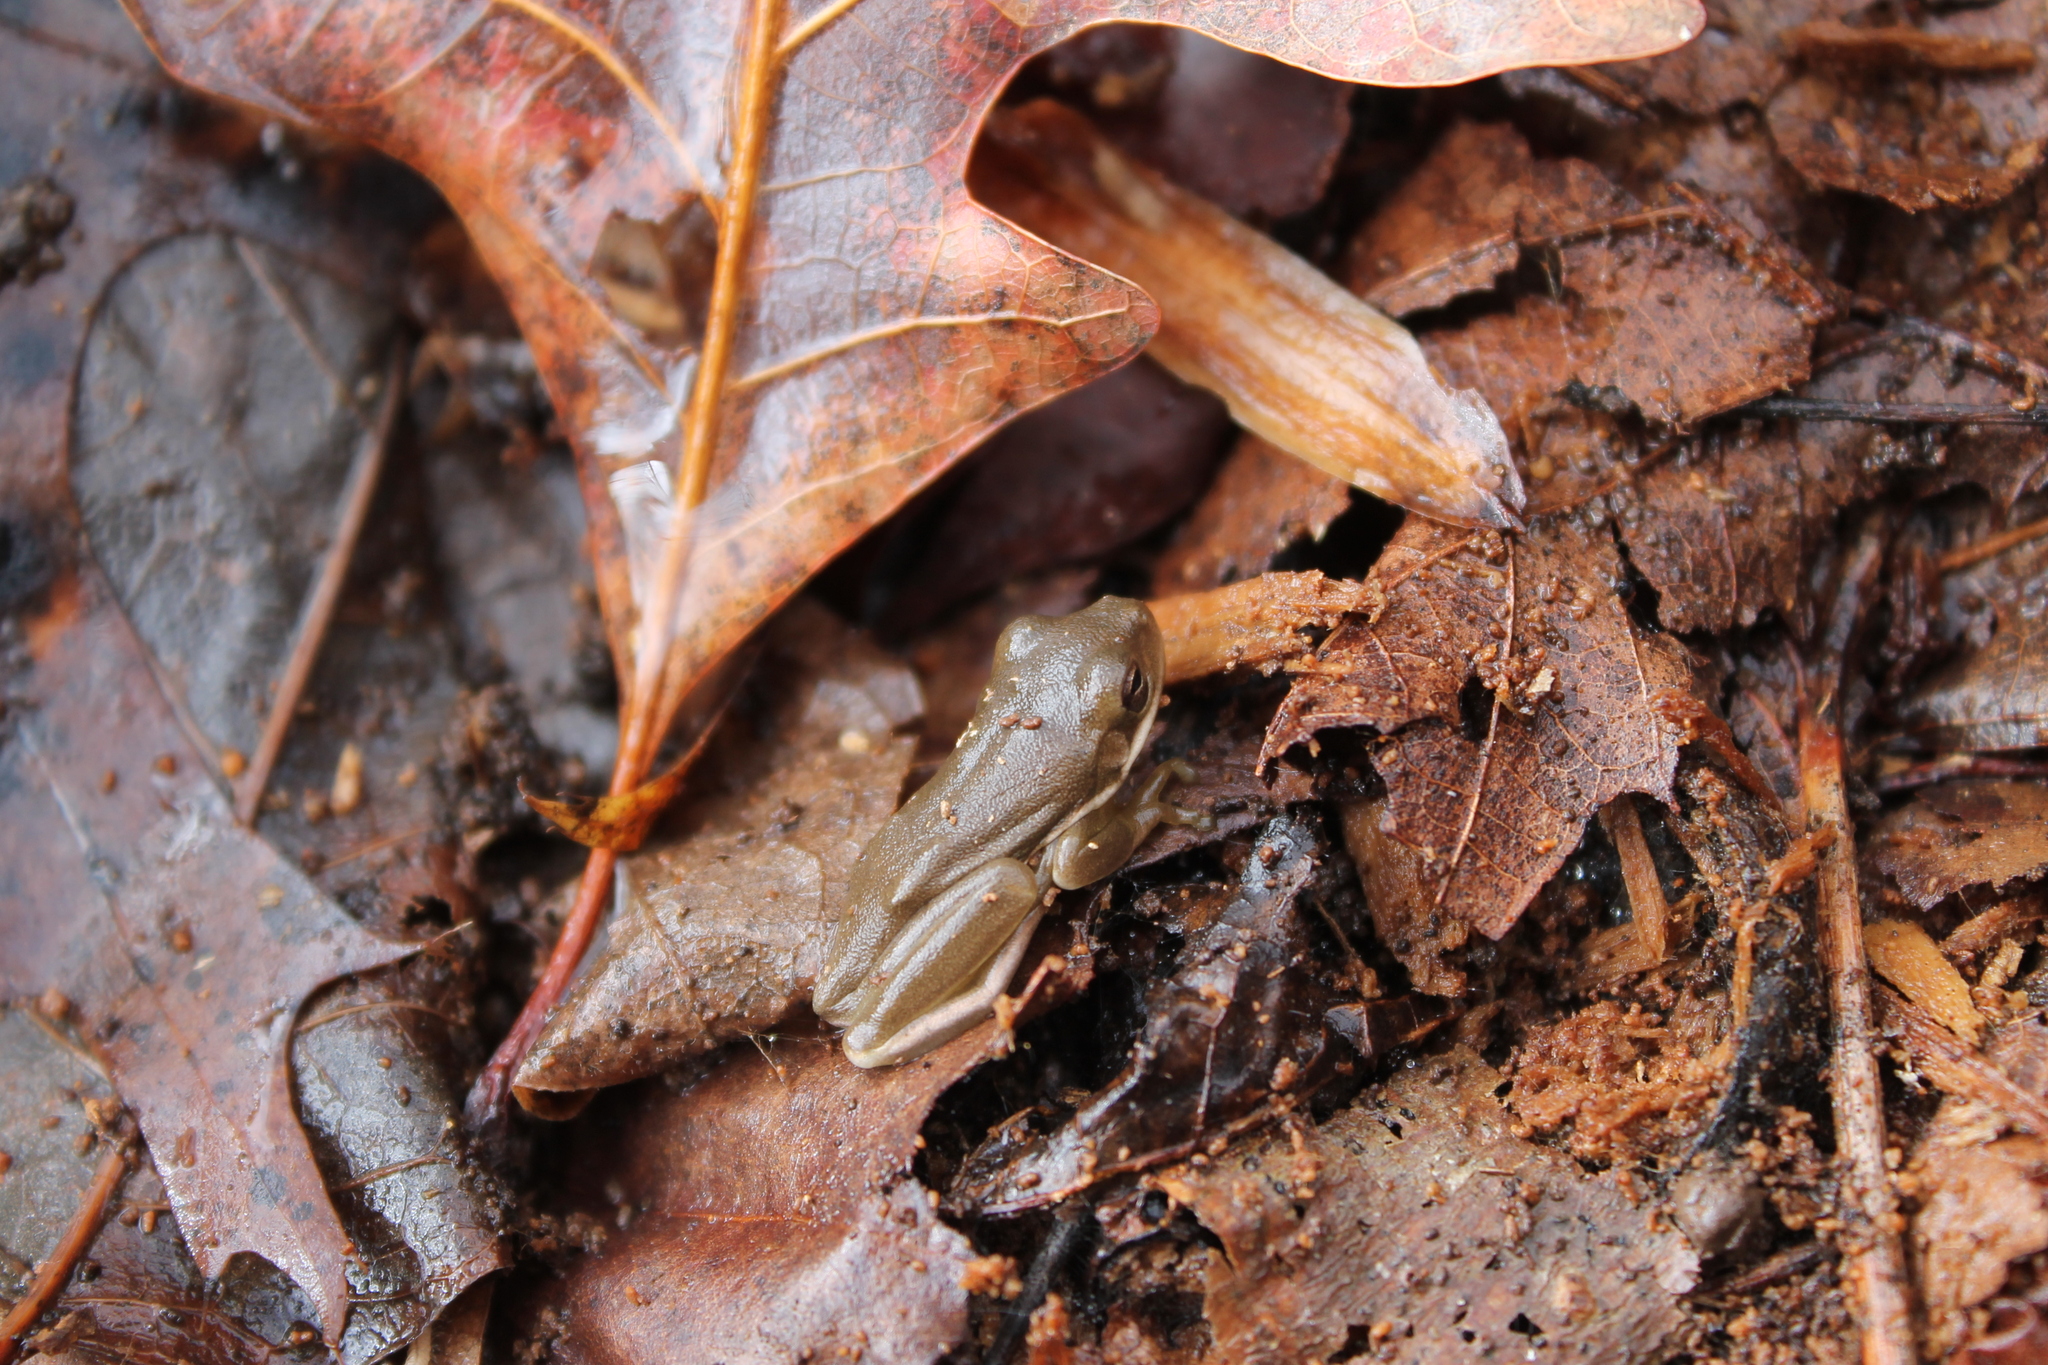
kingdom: Animalia
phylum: Chordata
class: Amphibia
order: Anura
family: Hylidae
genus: Dryophytes
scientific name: Dryophytes cinereus
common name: Green treefrog
